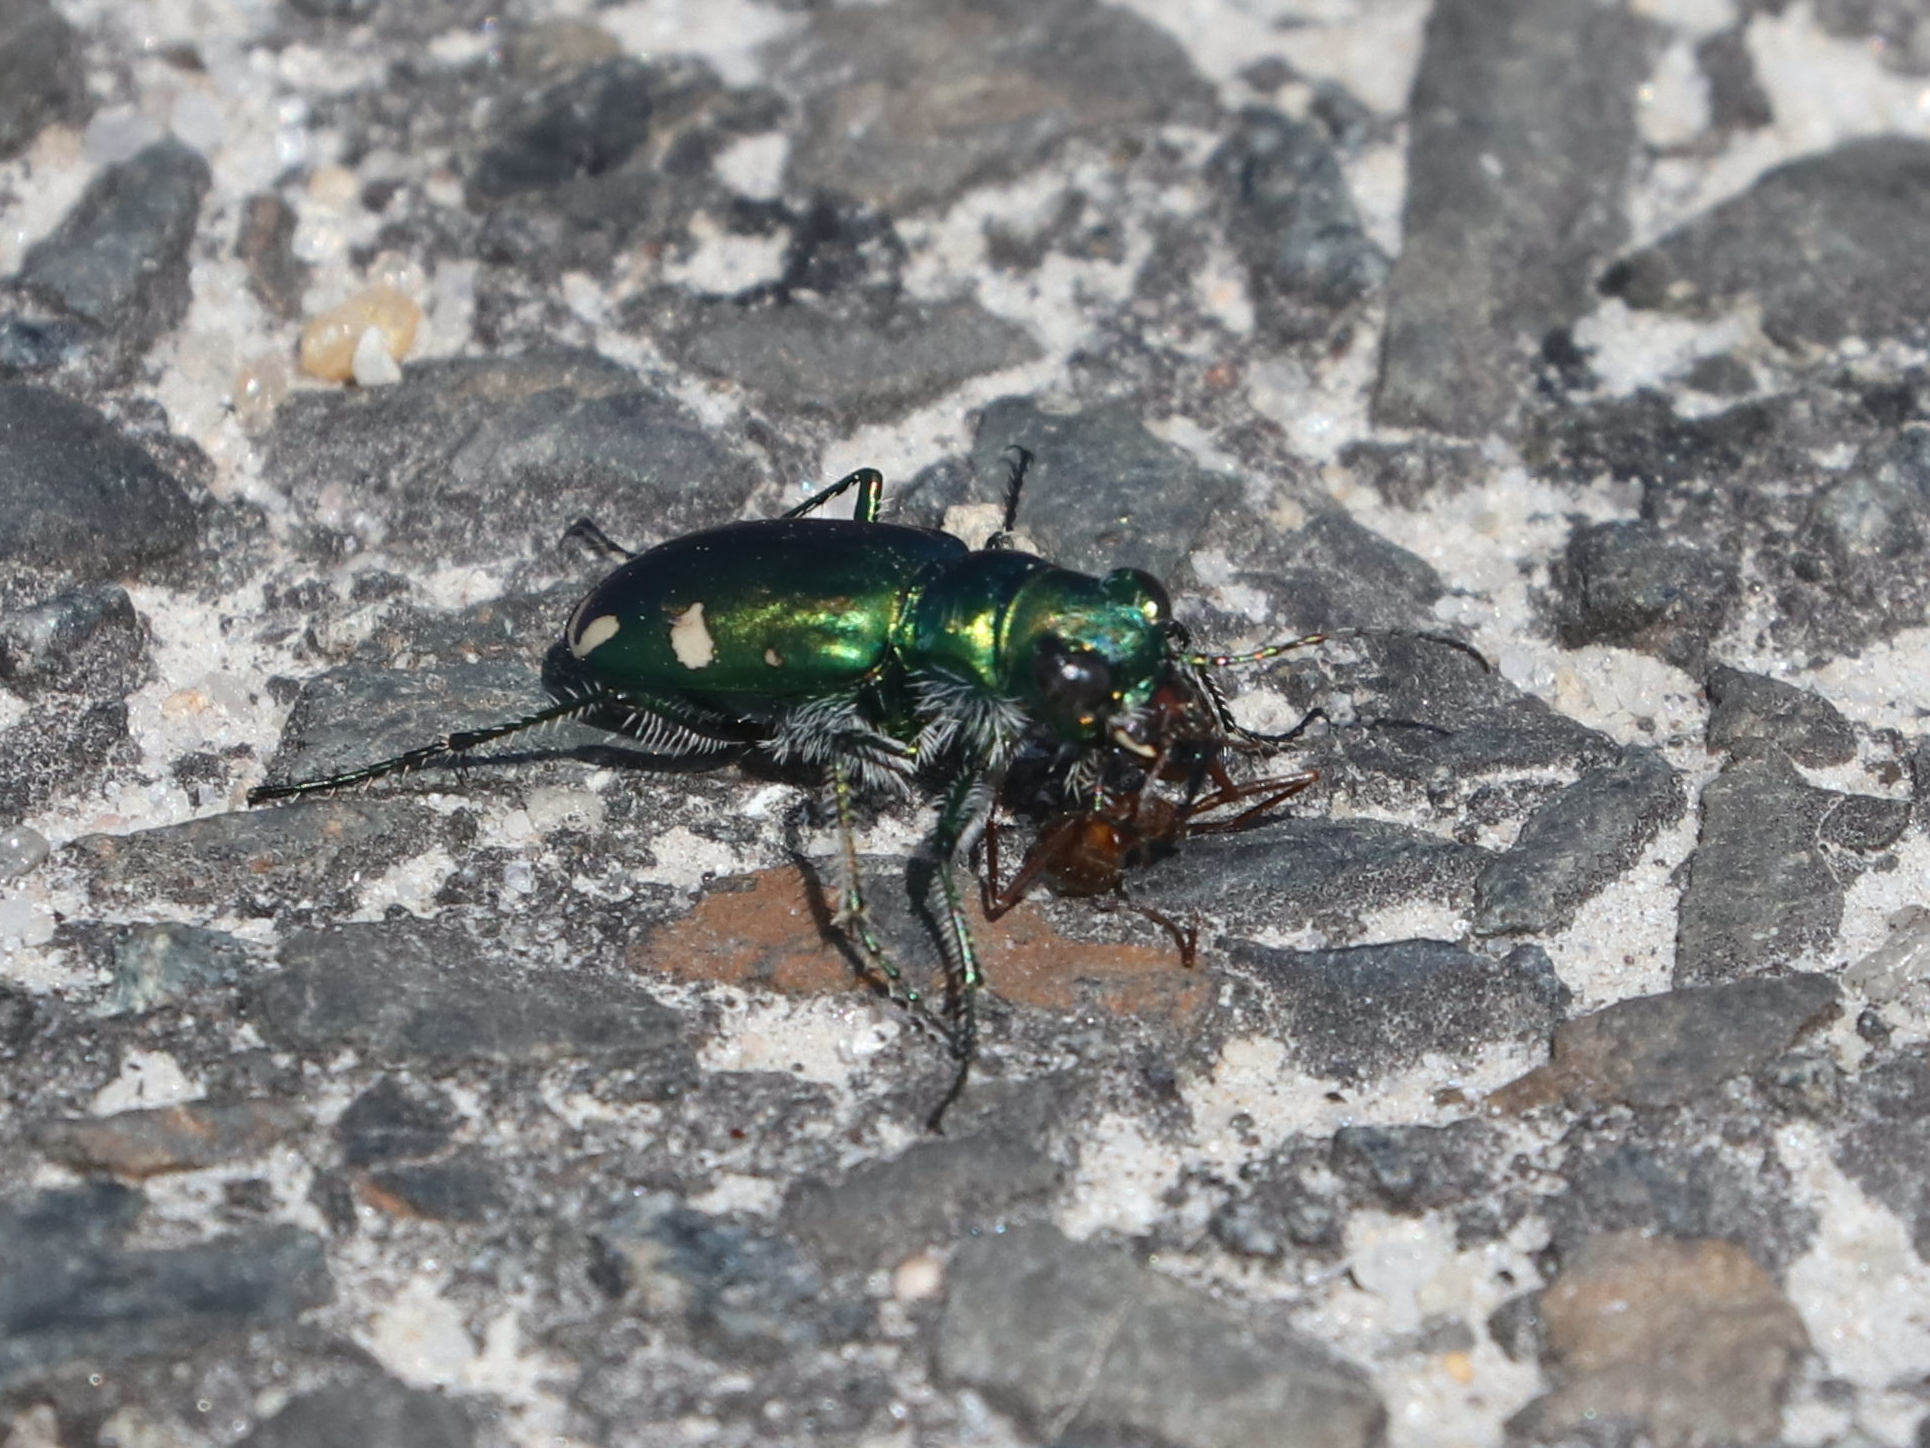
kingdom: Animalia
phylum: Arthropoda
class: Insecta
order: Coleoptera
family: Carabidae
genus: Cicindela
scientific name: Cicindela scutellaris
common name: Festive tiger beetle
